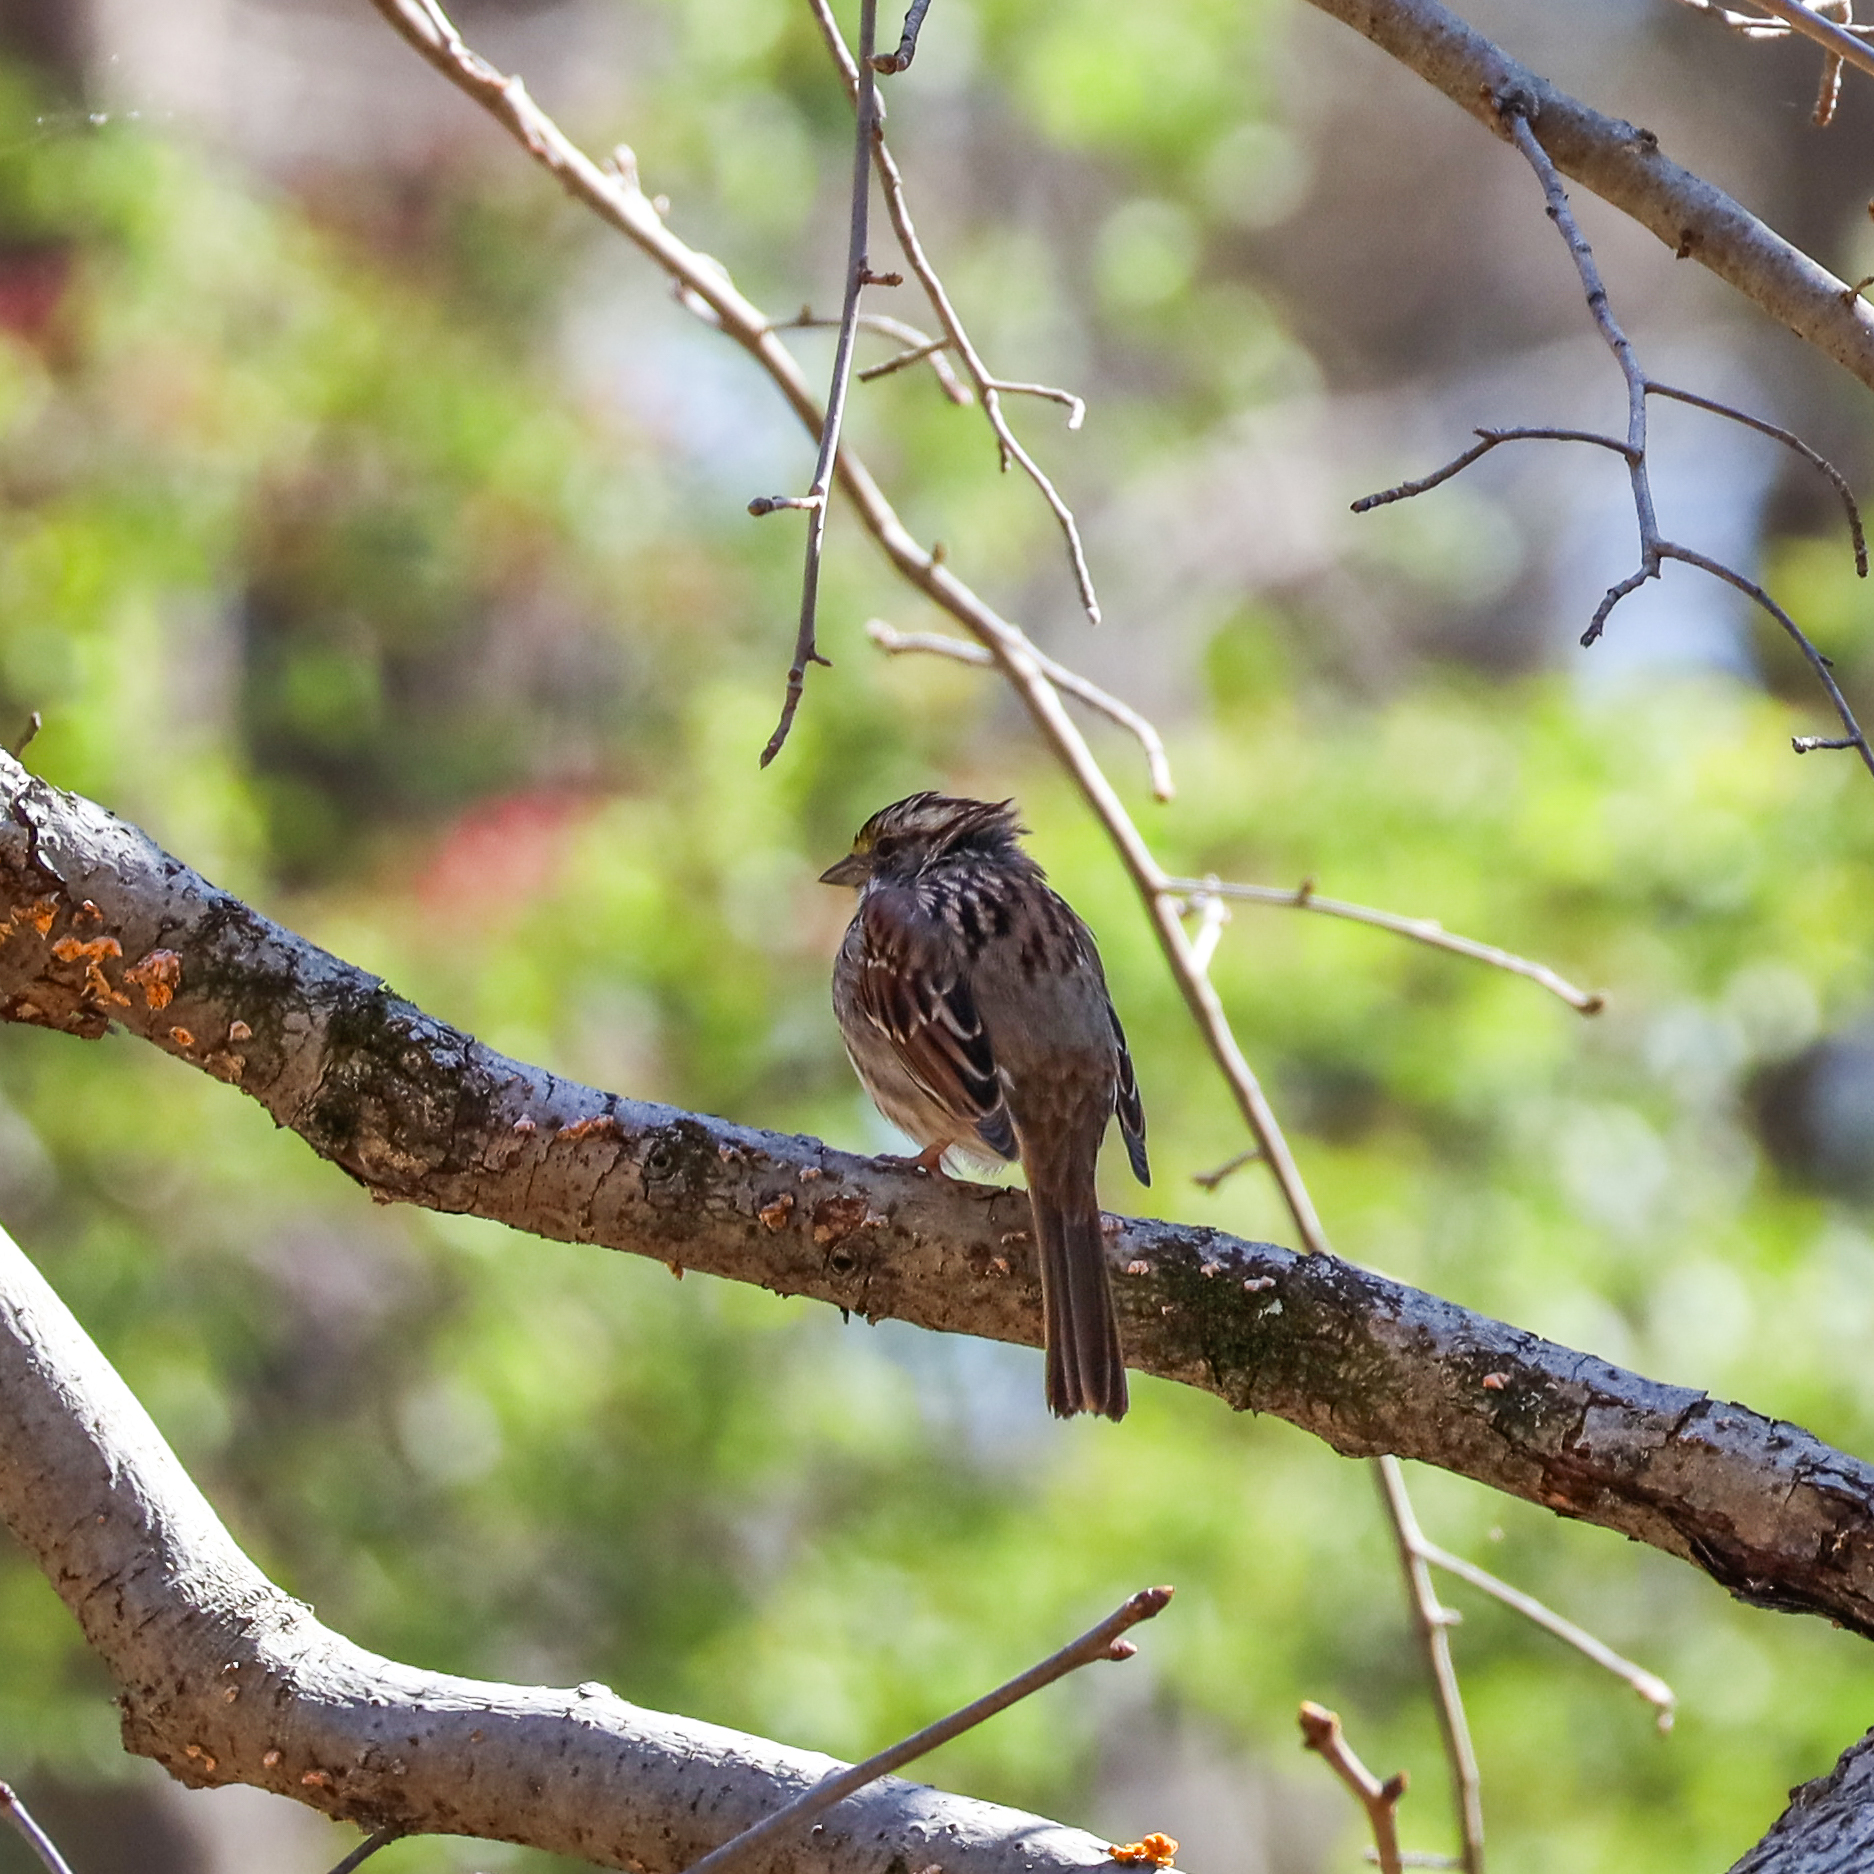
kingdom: Animalia
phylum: Chordata
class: Aves
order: Passeriformes
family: Passerellidae
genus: Zonotrichia
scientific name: Zonotrichia albicollis
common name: White-throated sparrow
